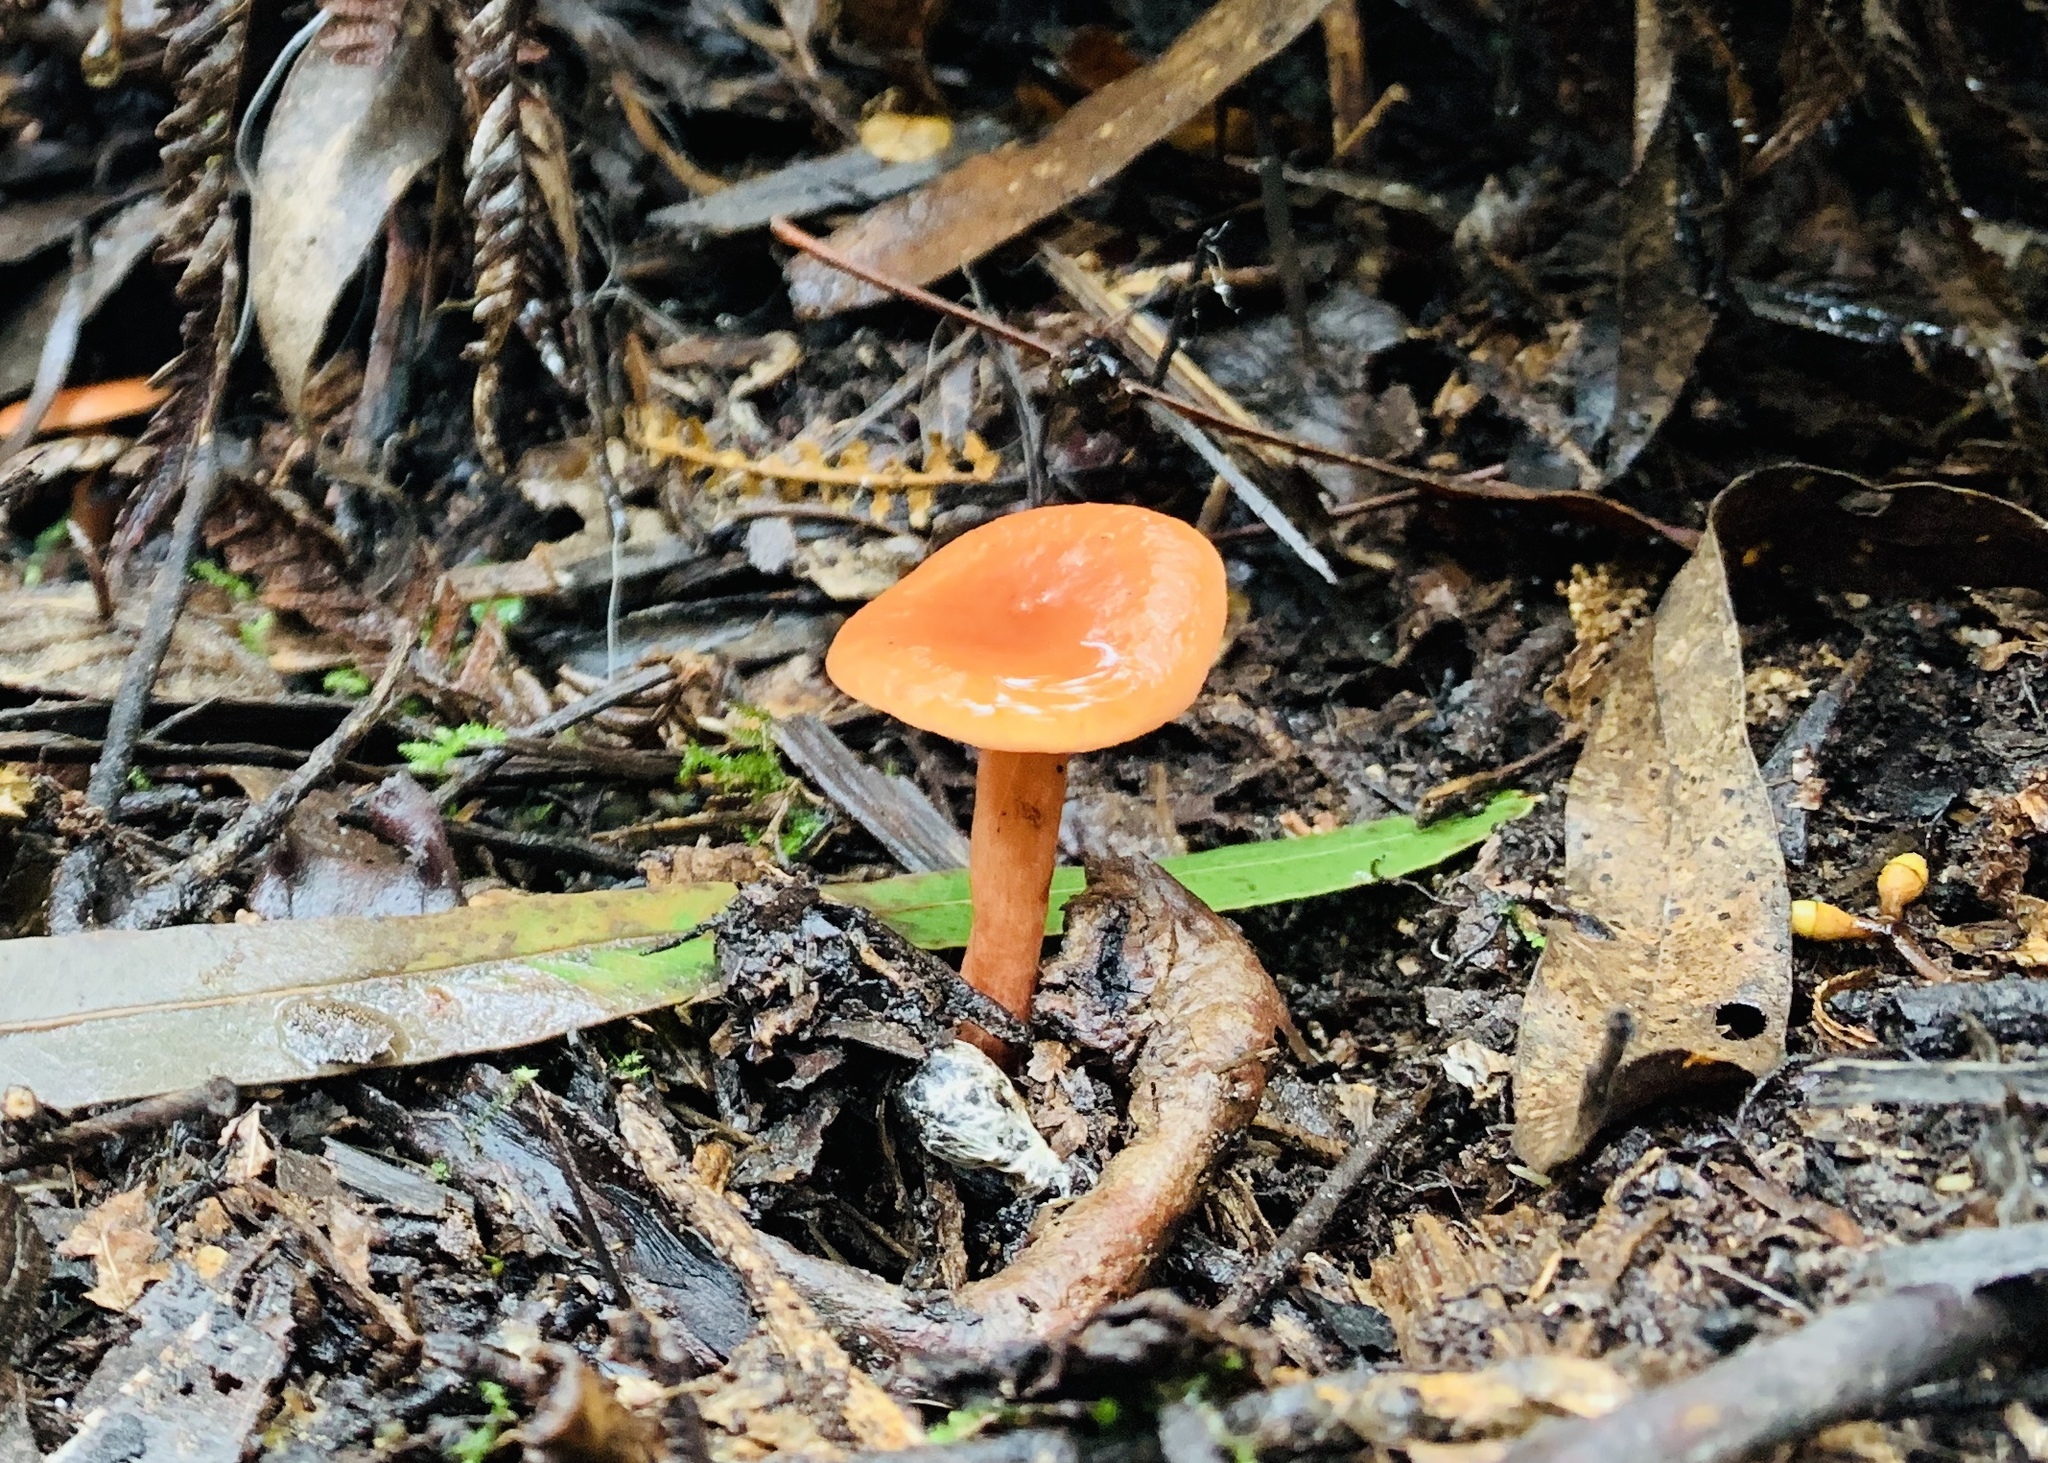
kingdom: Fungi
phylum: Basidiomycota
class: Agaricomycetes
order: Russulales
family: Russulaceae
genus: Lactarius
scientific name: Lactarius eucalypti
